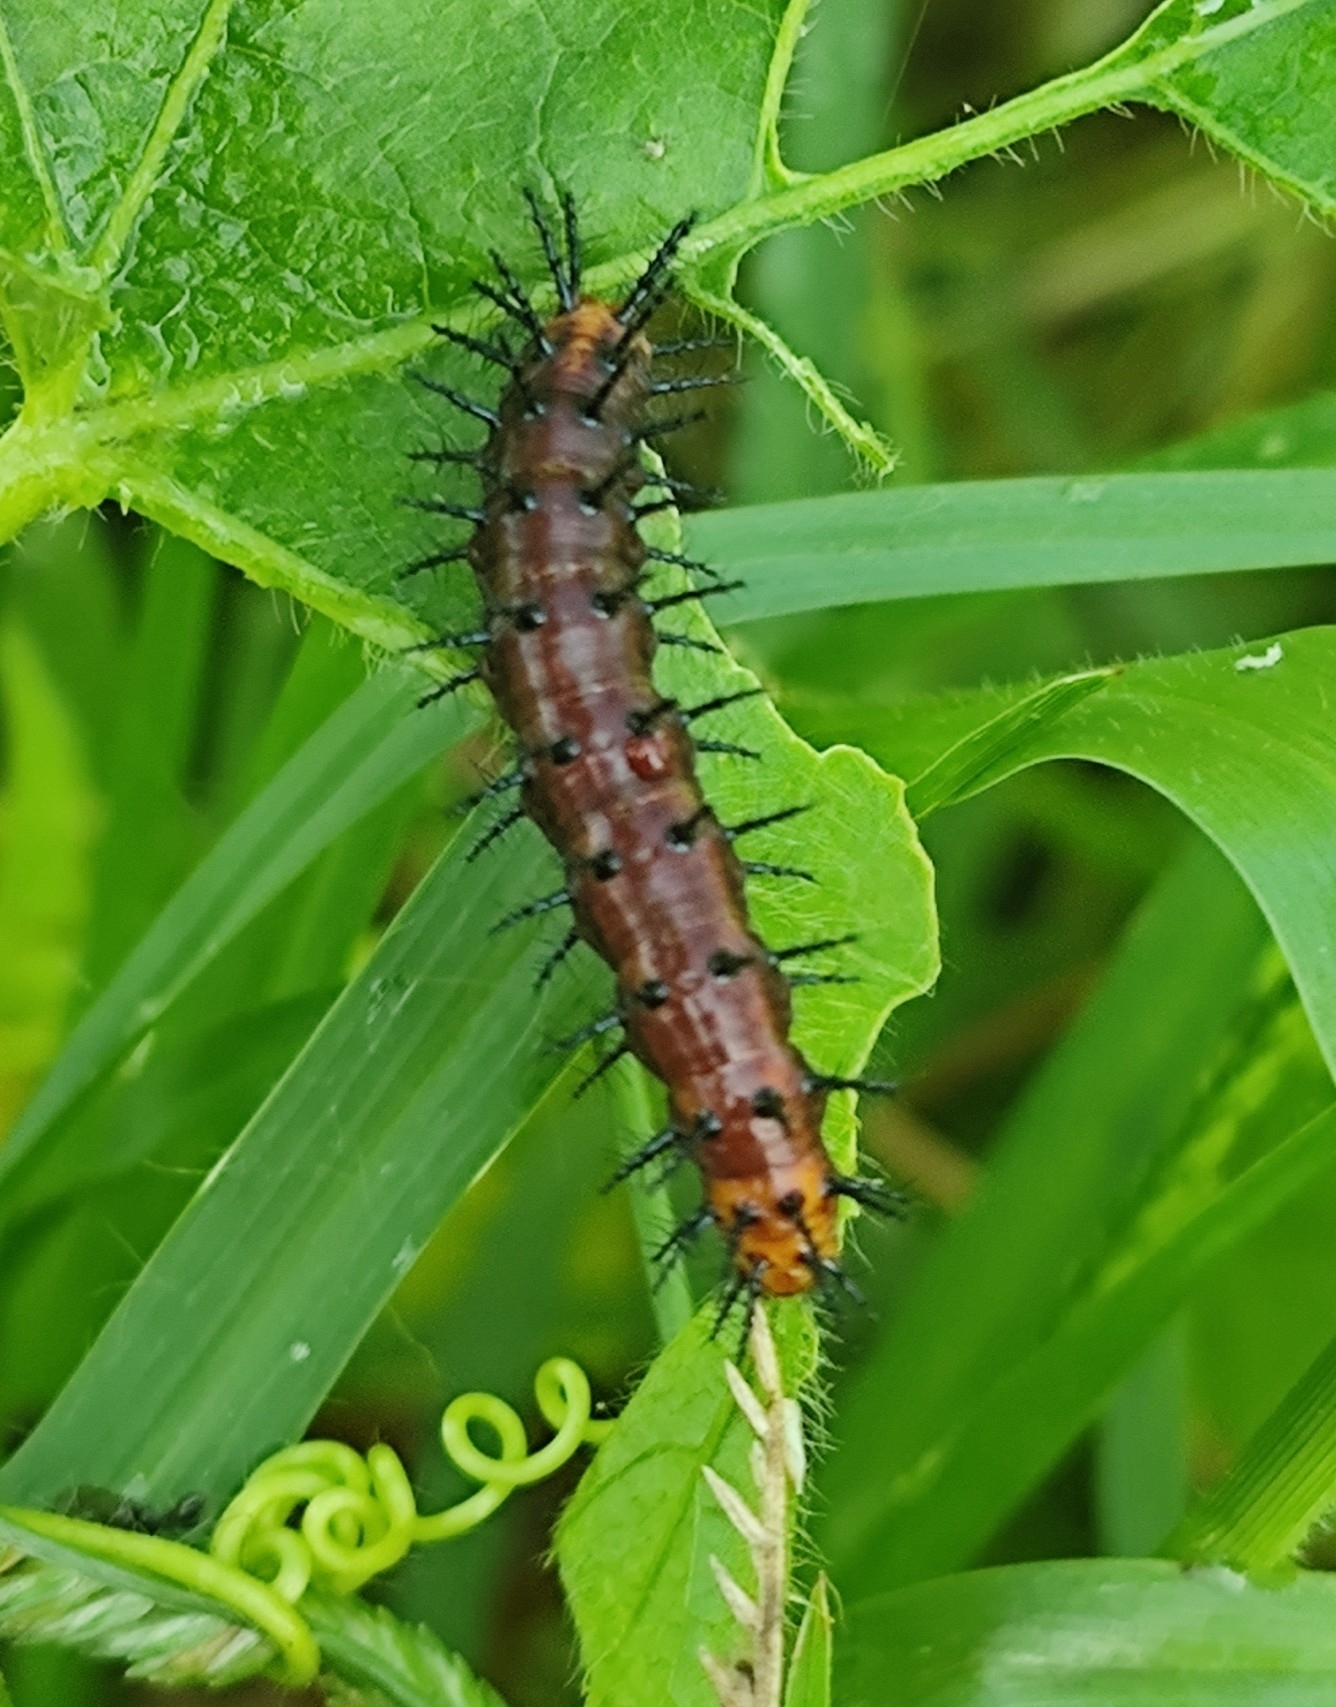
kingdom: Animalia
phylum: Arthropoda
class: Insecta
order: Lepidoptera
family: Nymphalidae
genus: Acraea
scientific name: Acraea terpsicore
